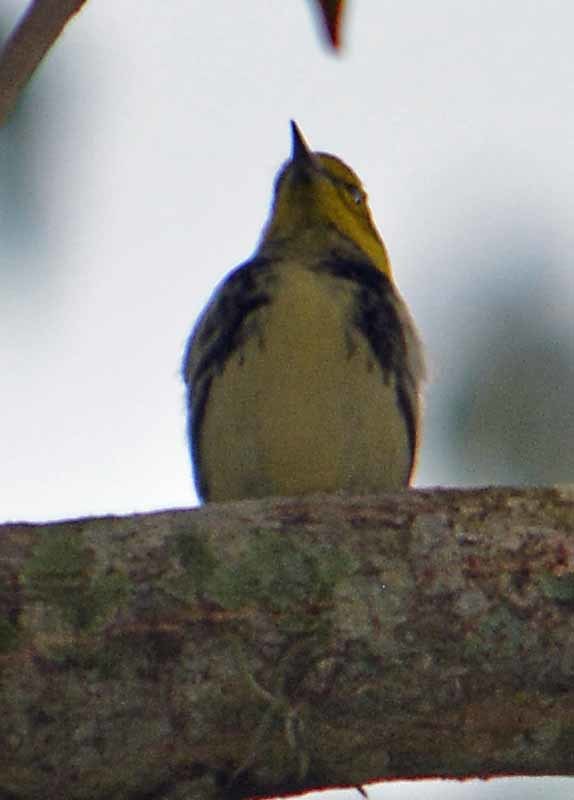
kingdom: Animalia
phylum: Chordata
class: Aves
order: Passeriformes
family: Parulidae
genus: Setophaga
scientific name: Setophaga virens
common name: Black-throated green warbler
